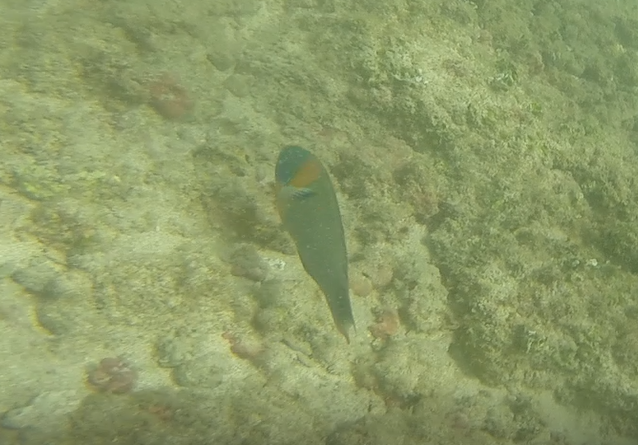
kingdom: Animalia
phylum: Chordata
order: Perciformes
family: Labridae
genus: Thalassoma
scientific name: Thalassoma duperrey
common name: Saddle wrasse
